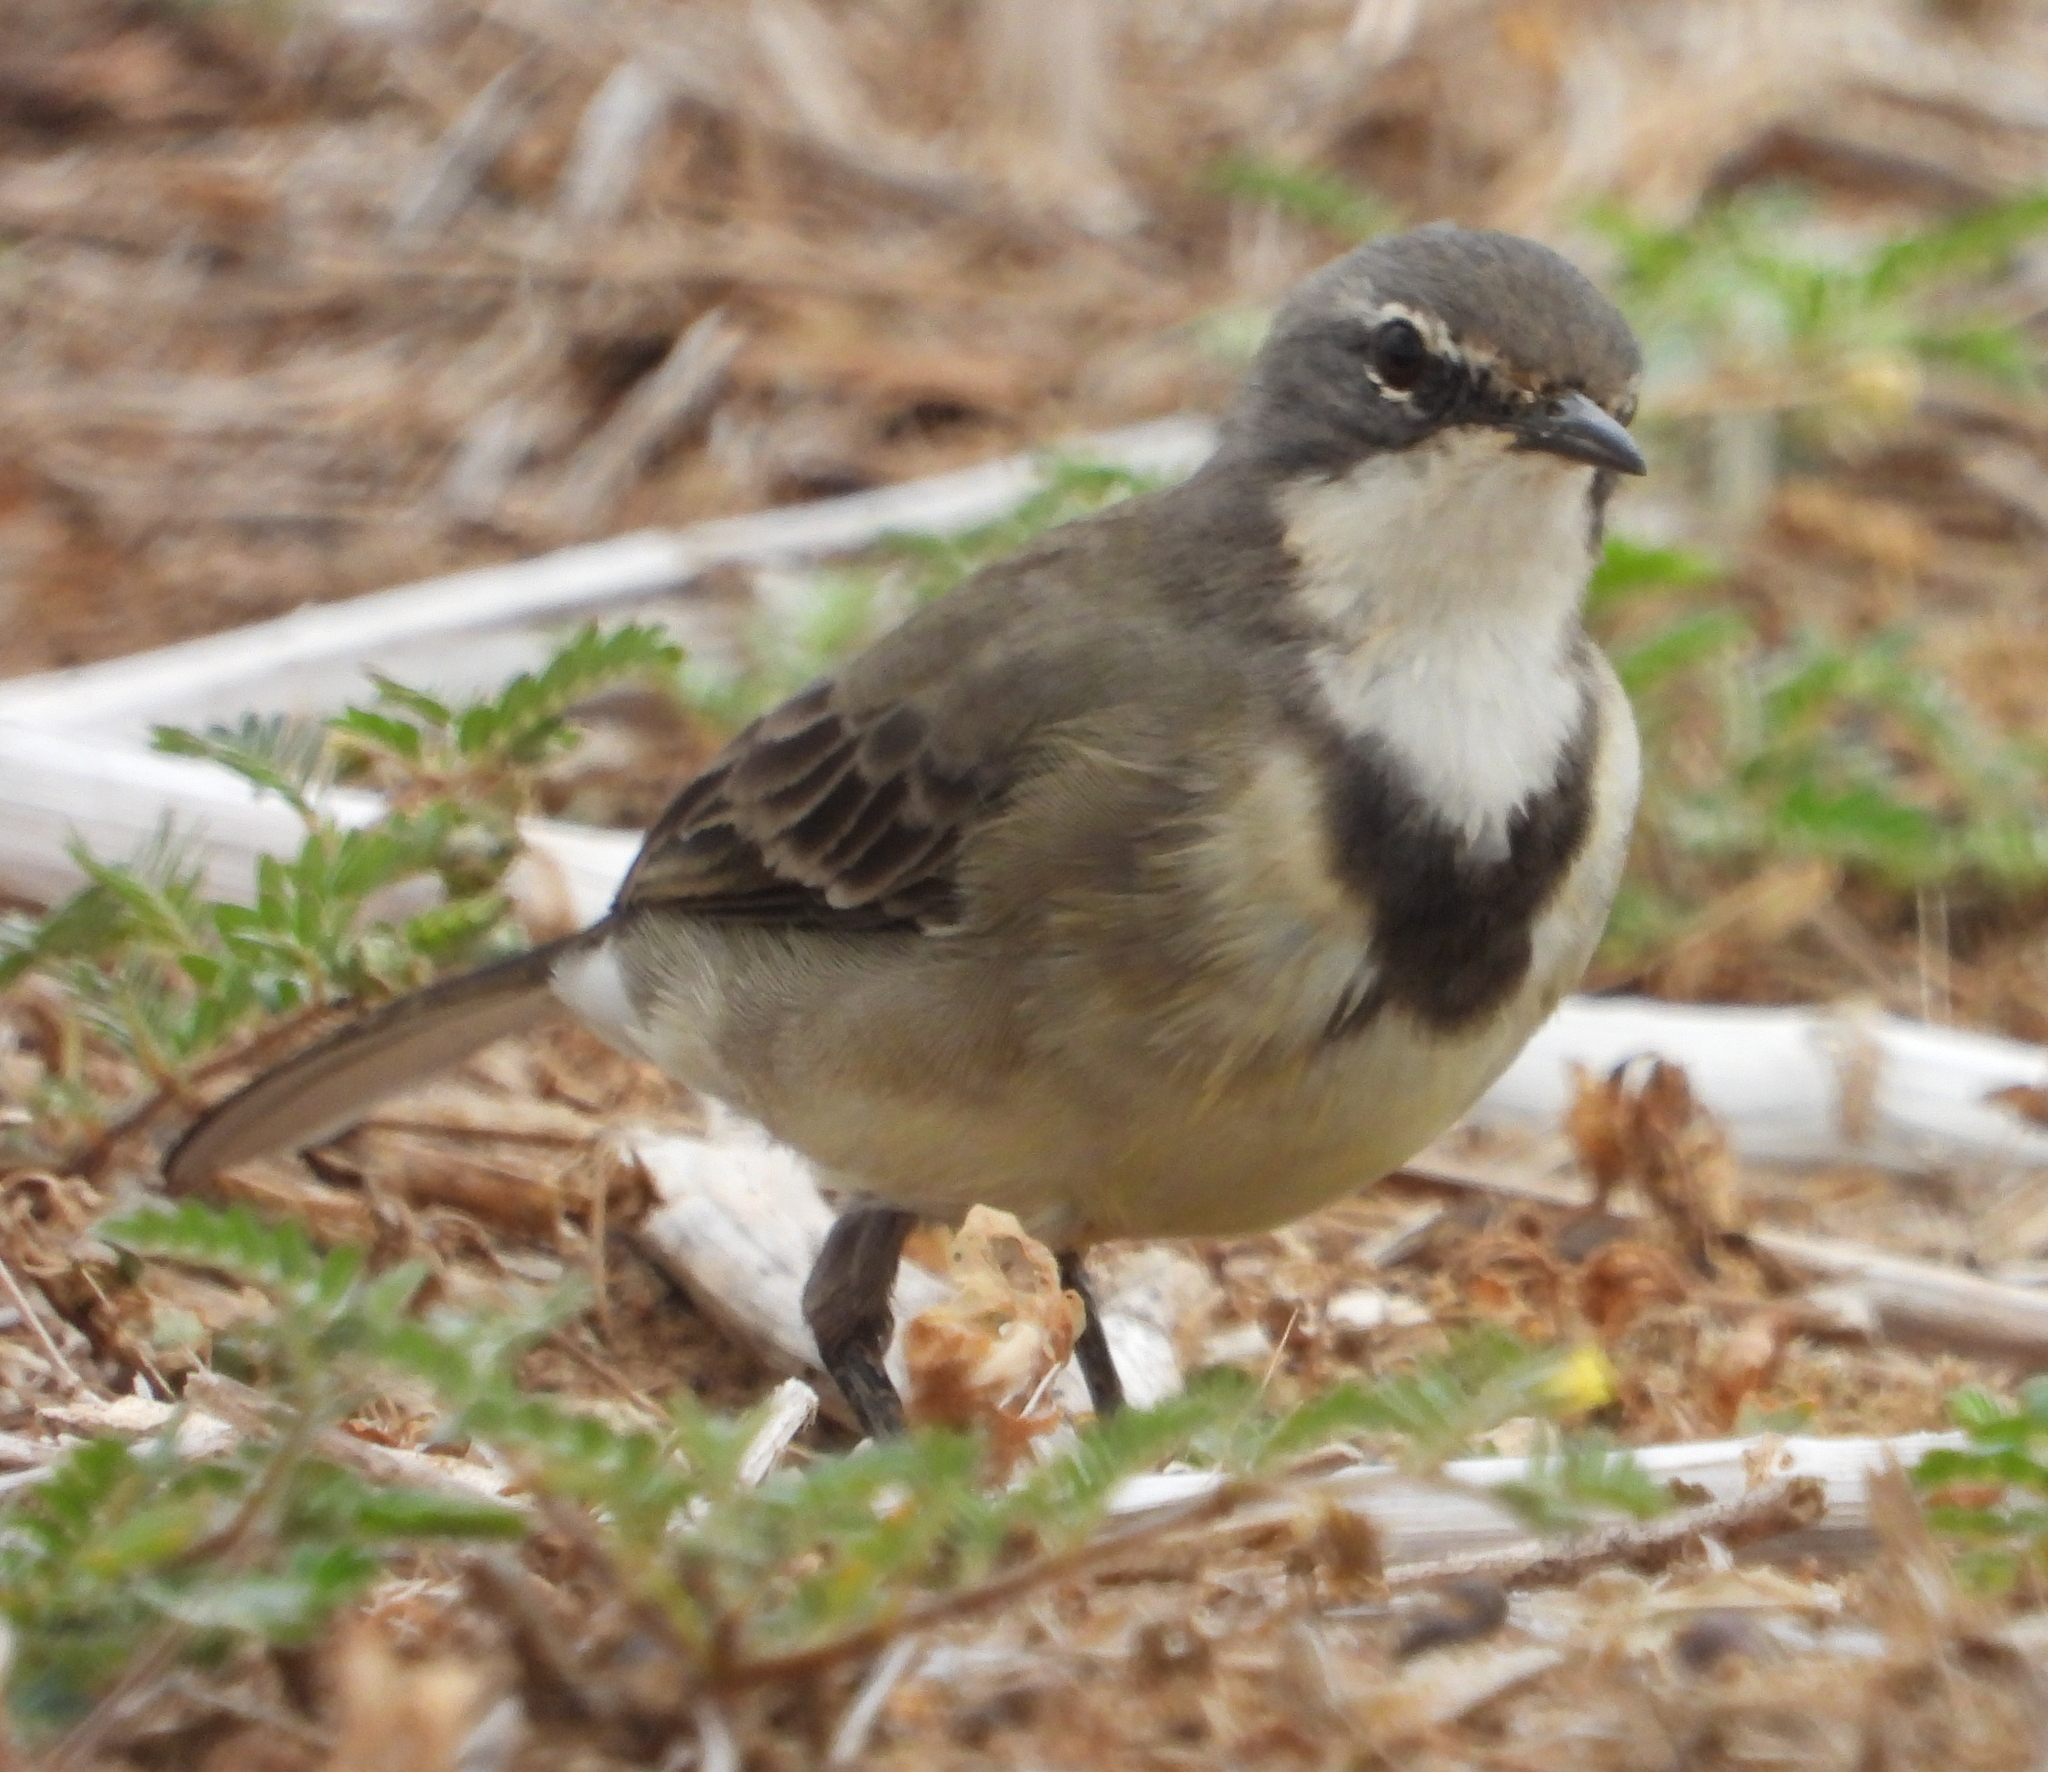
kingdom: Animalia
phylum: Chordata
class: Aves
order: Passeriformes
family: Motacillidae
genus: Motacilla
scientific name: Motacilla capensis
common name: Cape wagtail
